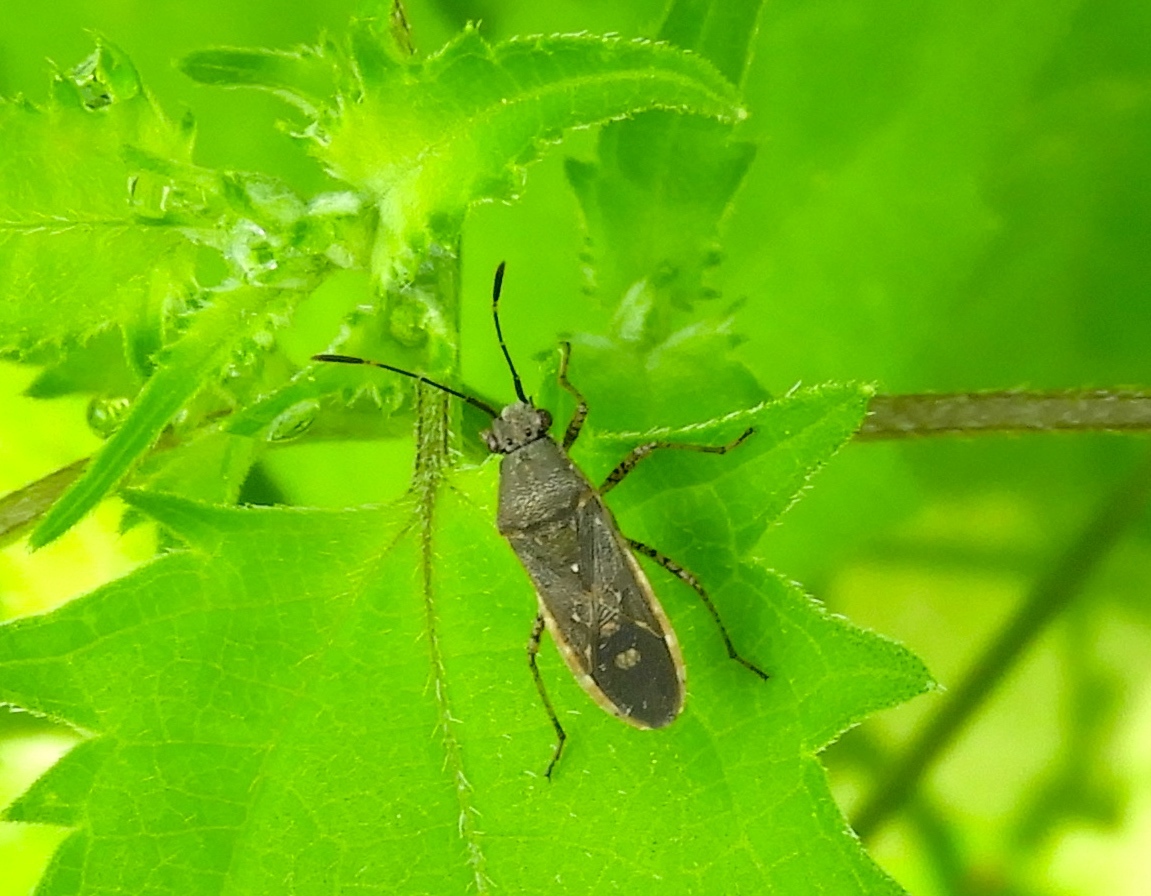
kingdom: Animalia
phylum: Arthropoda
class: Insecta
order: Hemiptera
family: Coreidae
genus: Catorhintha
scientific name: Catorhintha guttula
